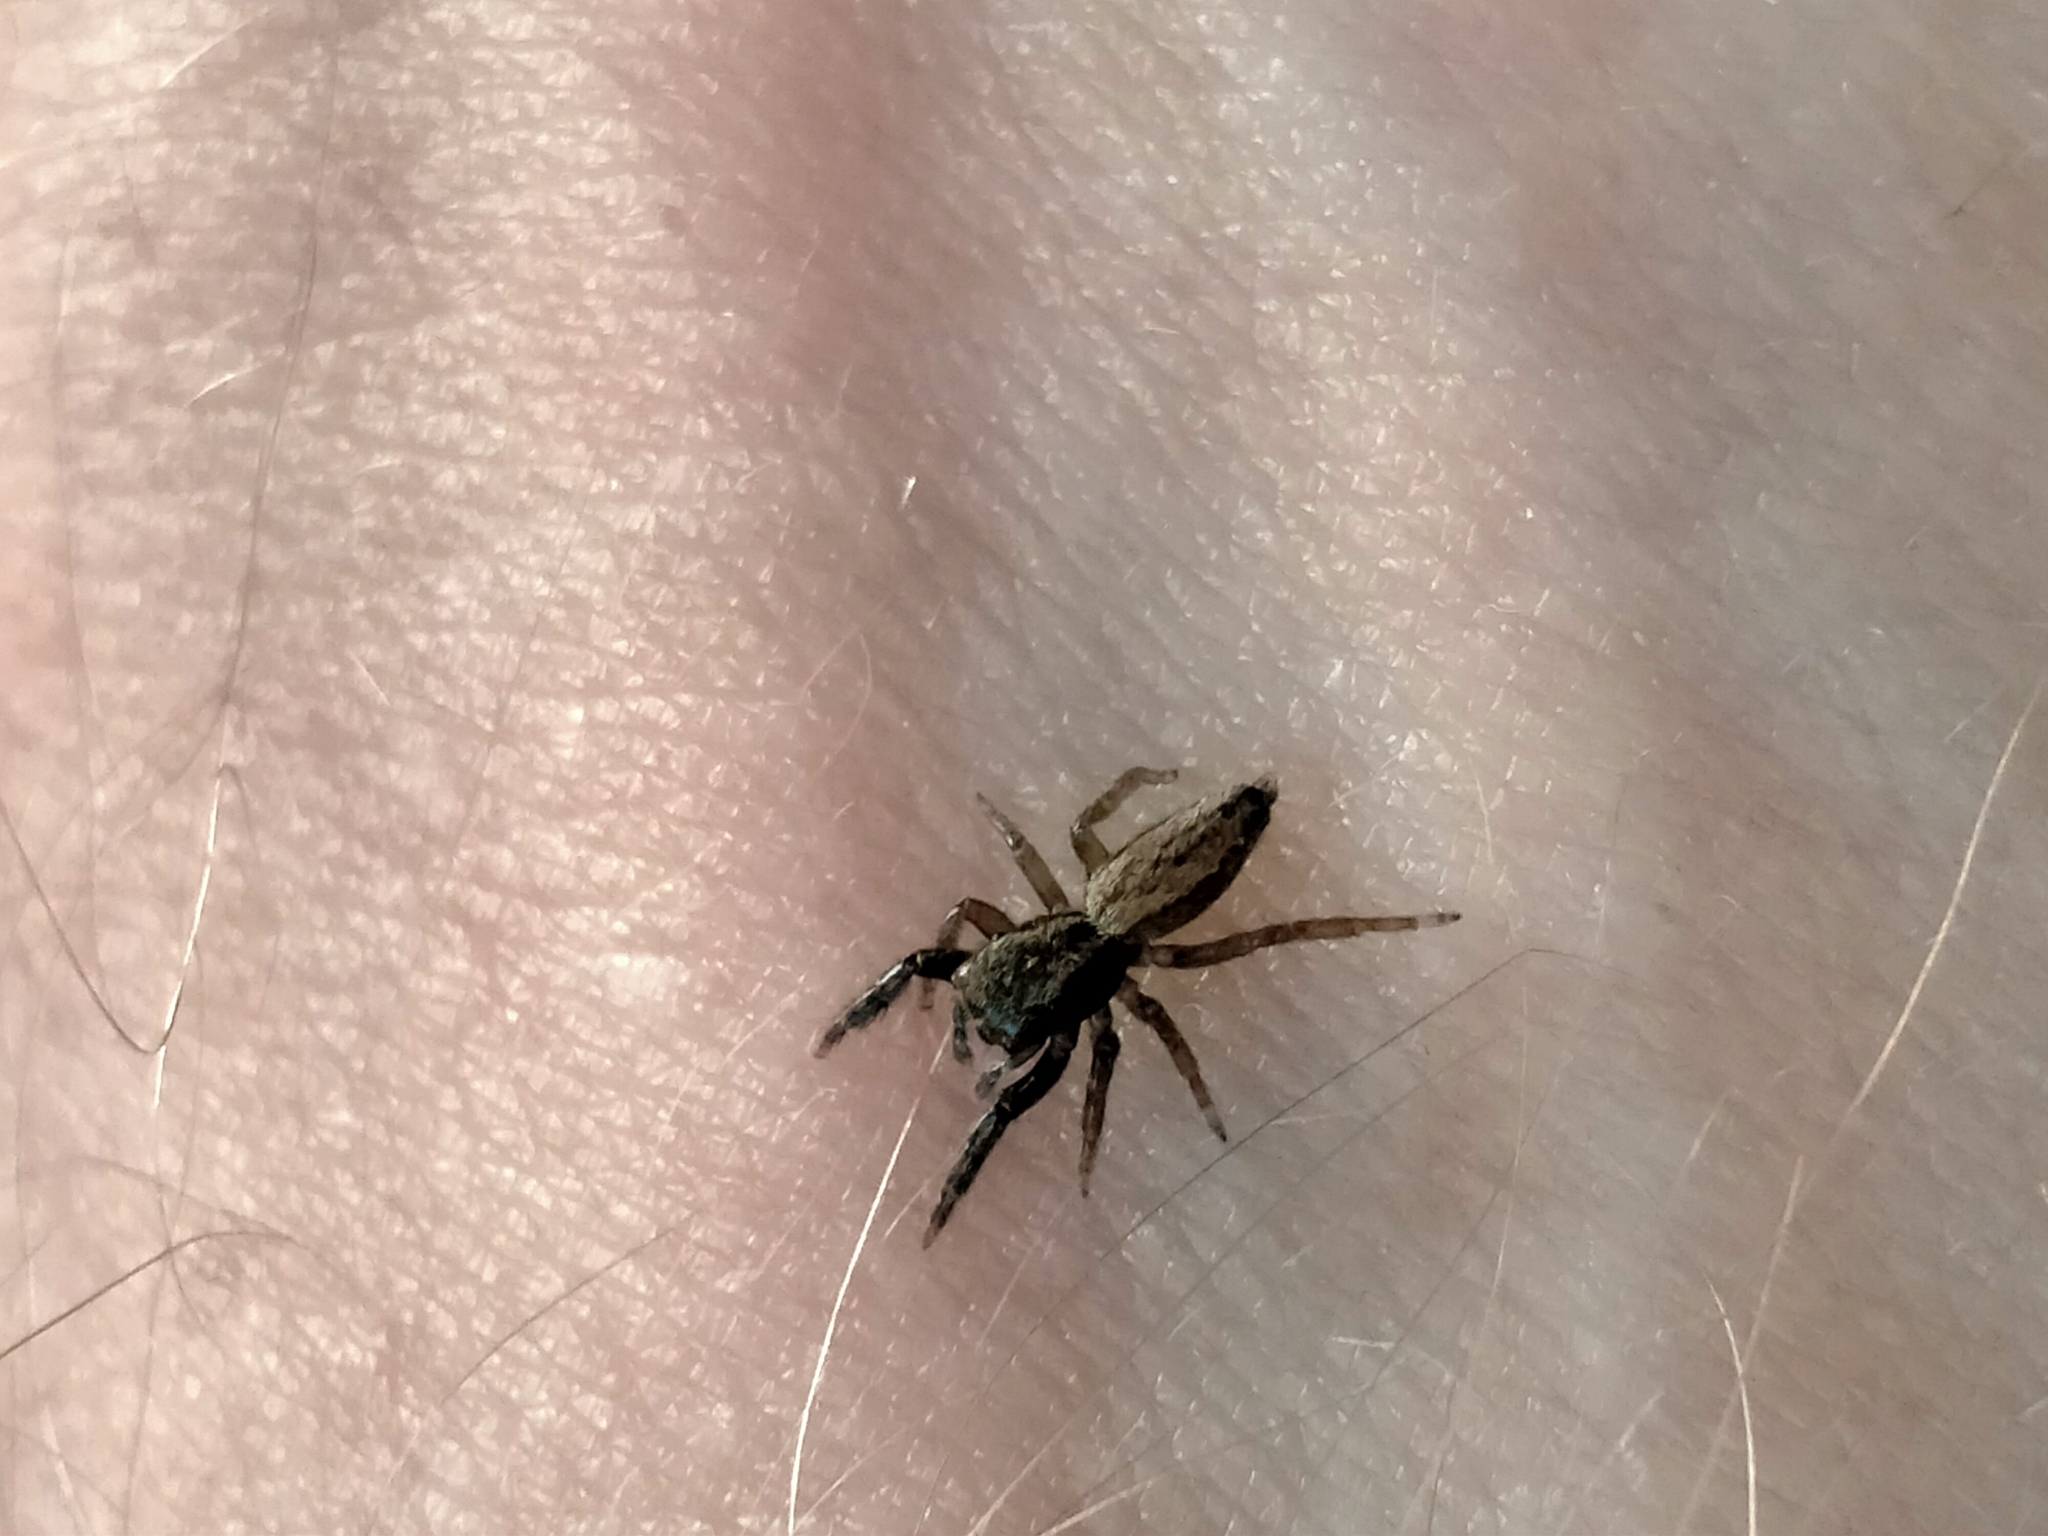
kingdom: Animalia
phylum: Arthropoda
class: Arachnida
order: Araneae
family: Salticidae
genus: Trite
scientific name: Trite auricoma
